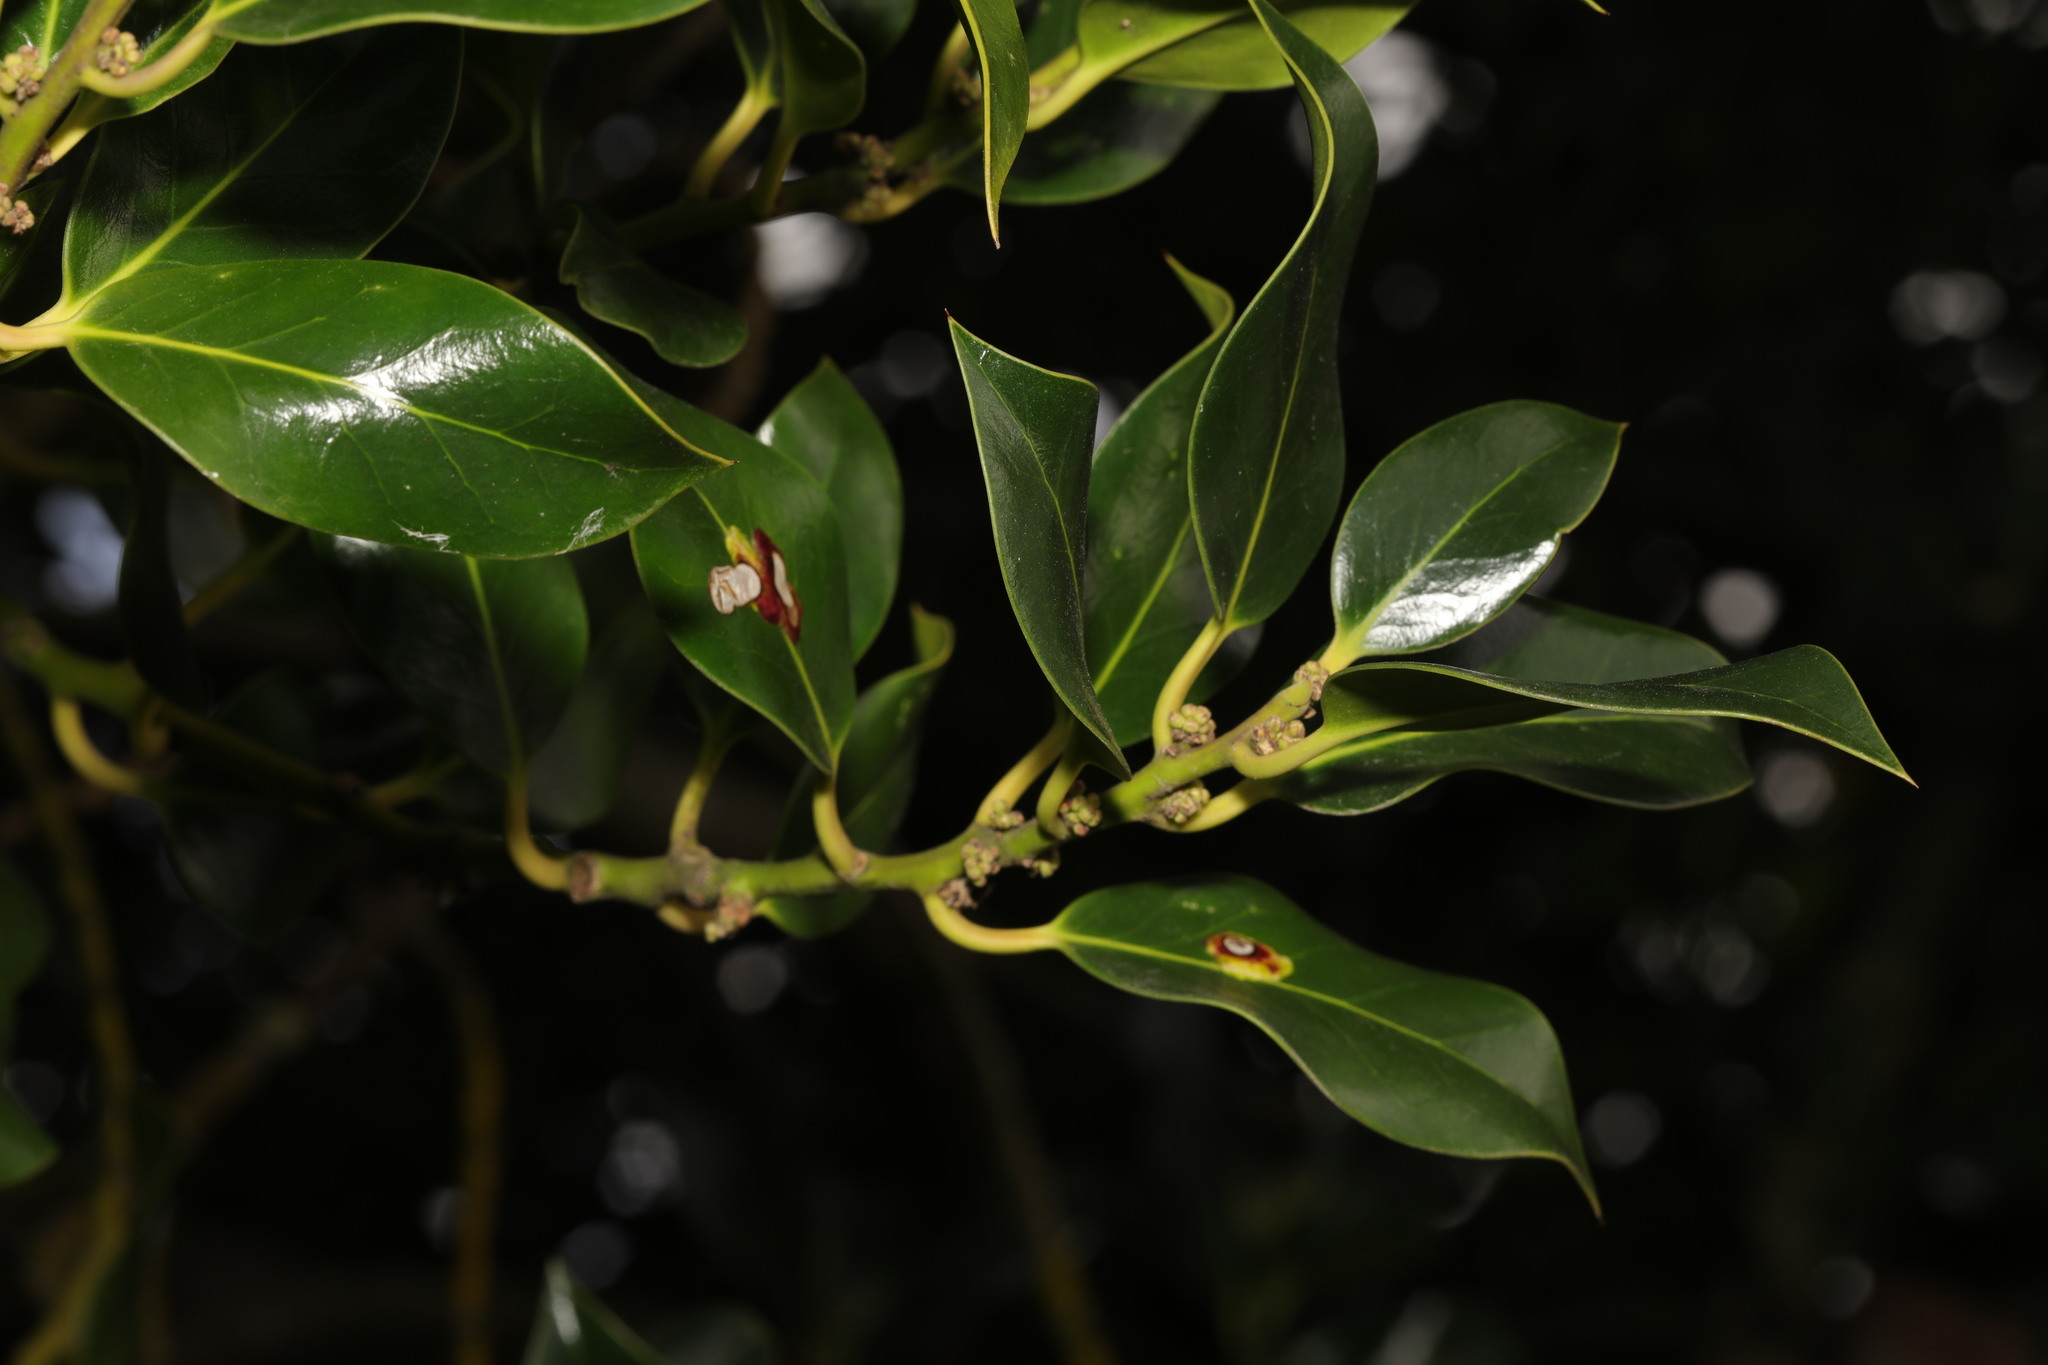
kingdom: Plantae
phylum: Tracheophyta
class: Magnoliopsida
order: Aquifoliales
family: Aquifoliaceae
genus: Ilex
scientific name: Ilex aquifolium
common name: English holly
